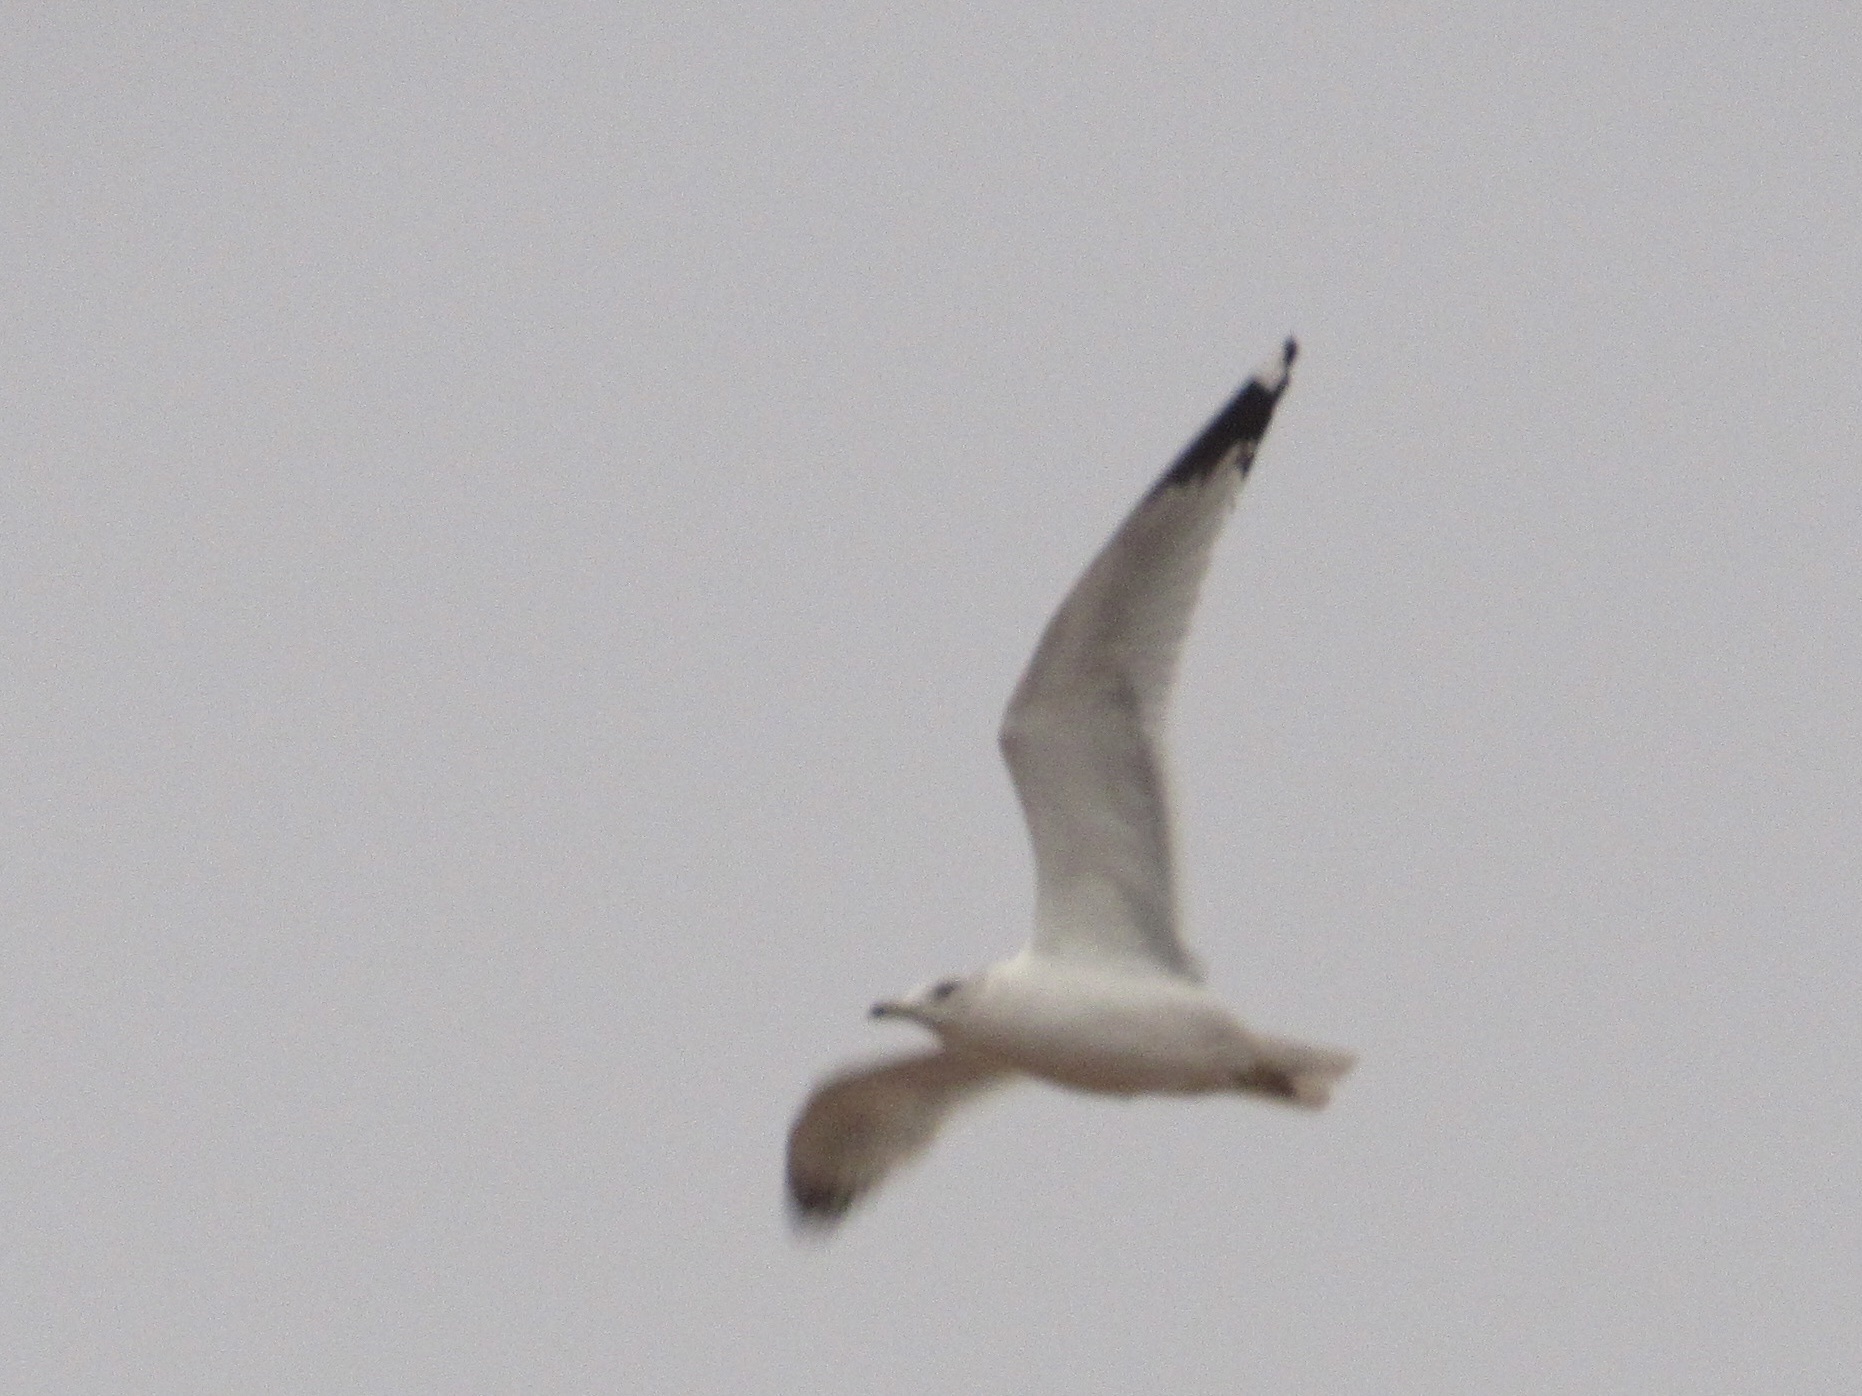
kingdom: Animalia
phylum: Chordata
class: Aves
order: Charadriiformes
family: Laridae
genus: Larus
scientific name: Larus delawarensis
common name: Ring-billed gull
